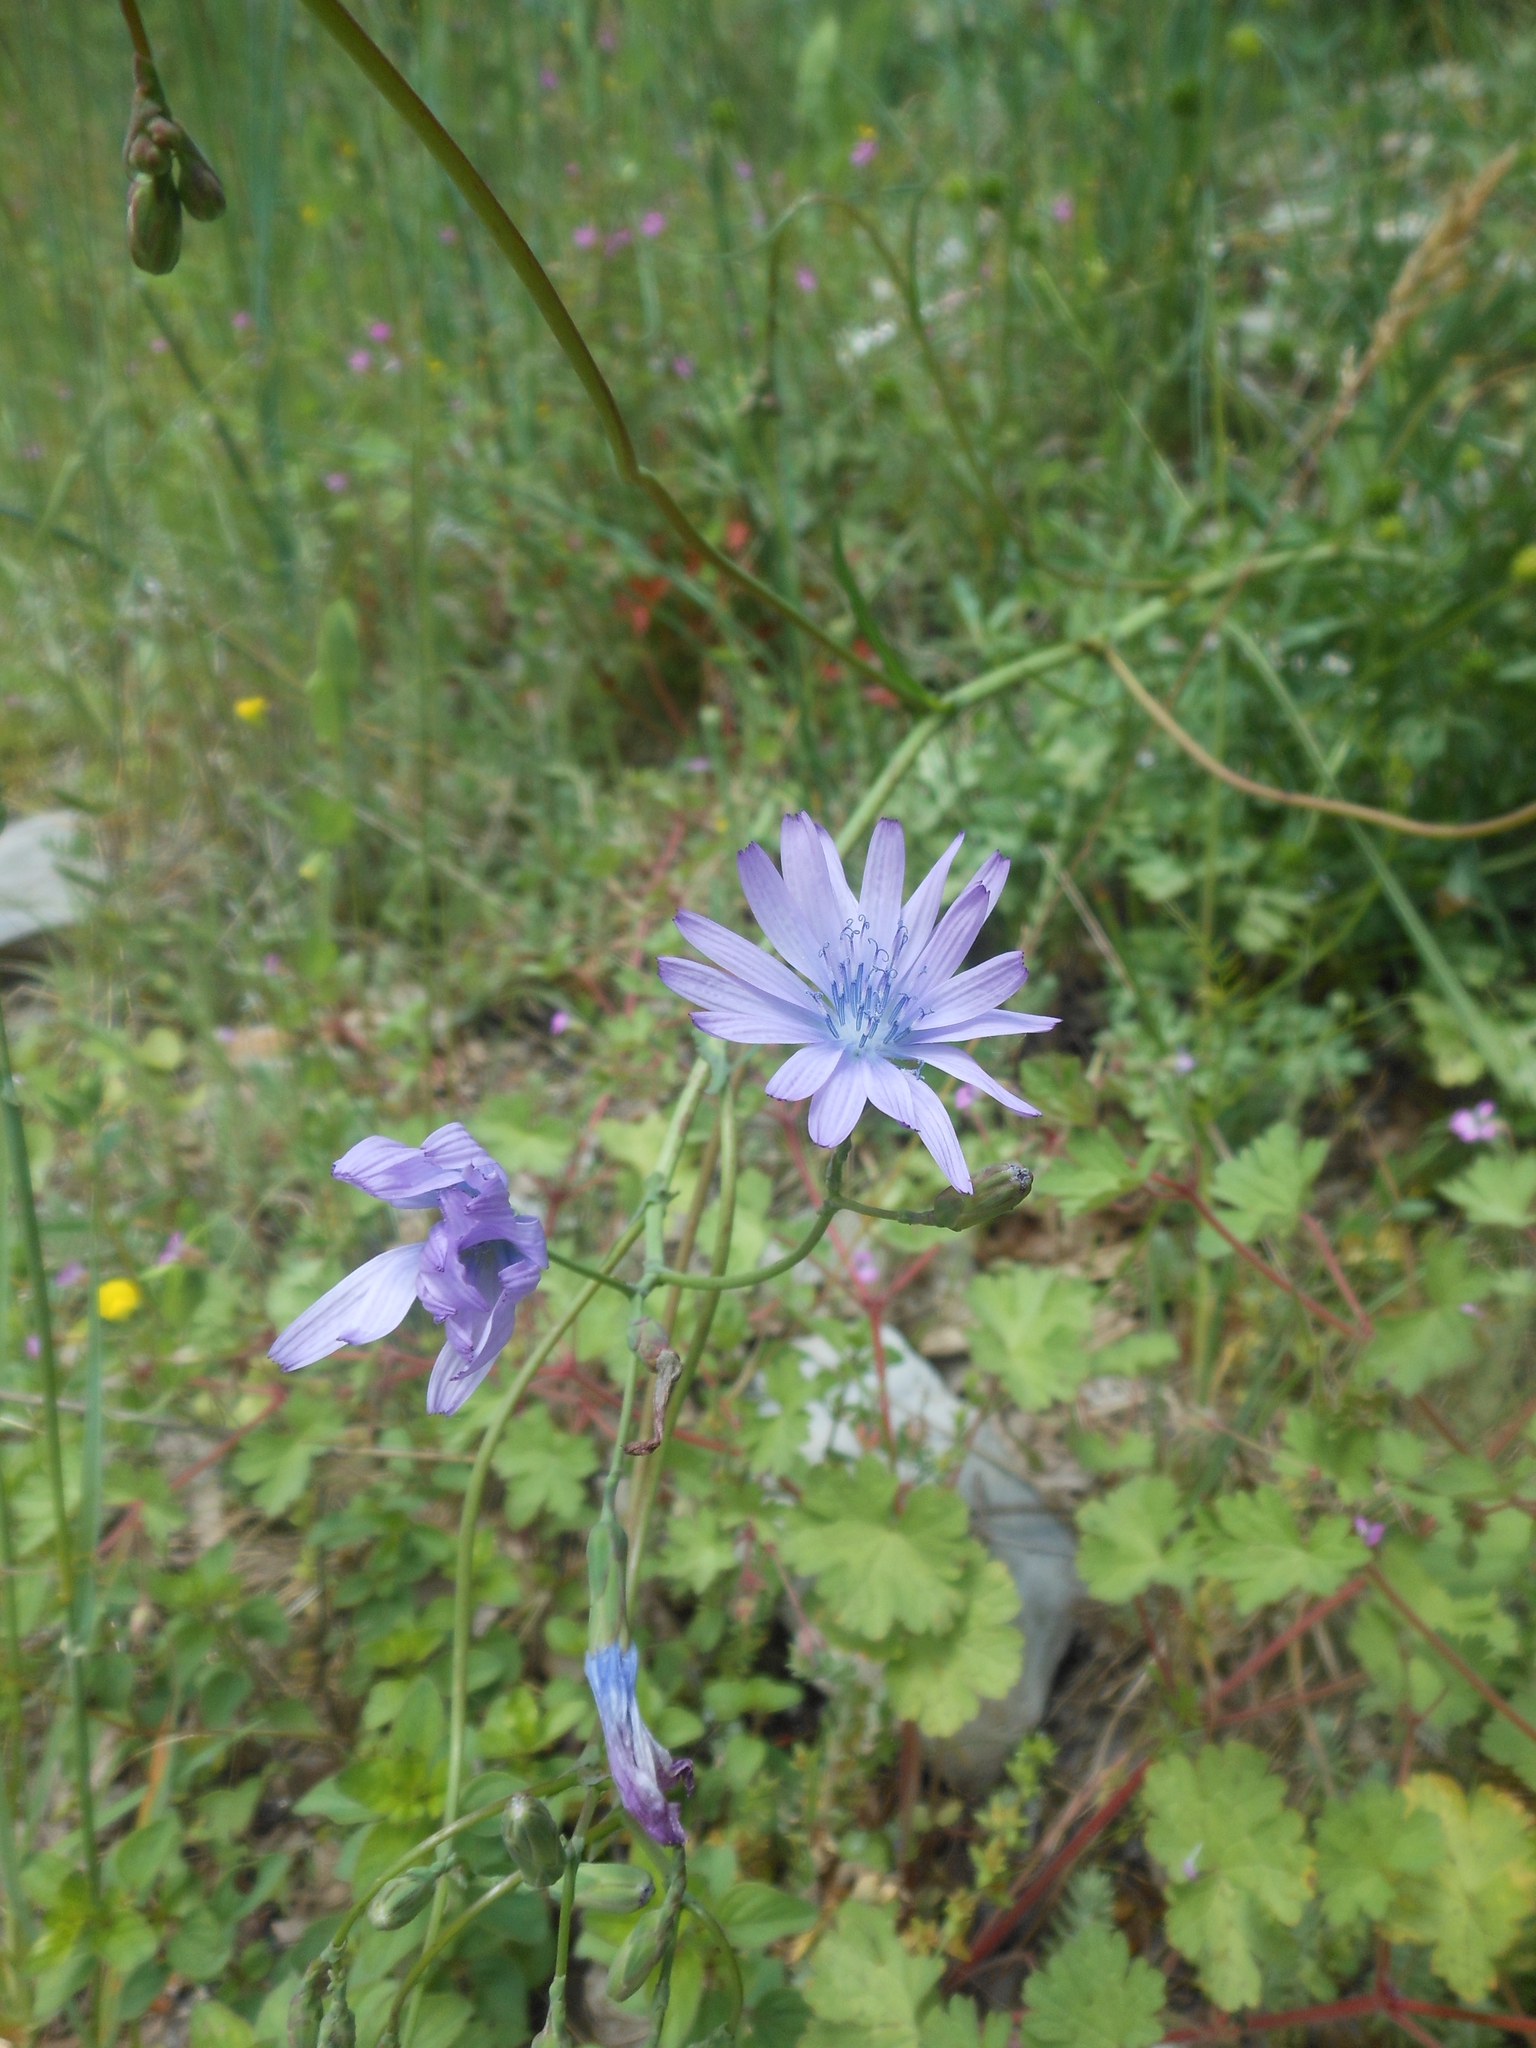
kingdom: Plantae
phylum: Tracheophyta
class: Magnoliopsida
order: Asterales
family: Asteraceae
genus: Lactuca
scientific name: Lactuca perennis
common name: Mountain lettuce
